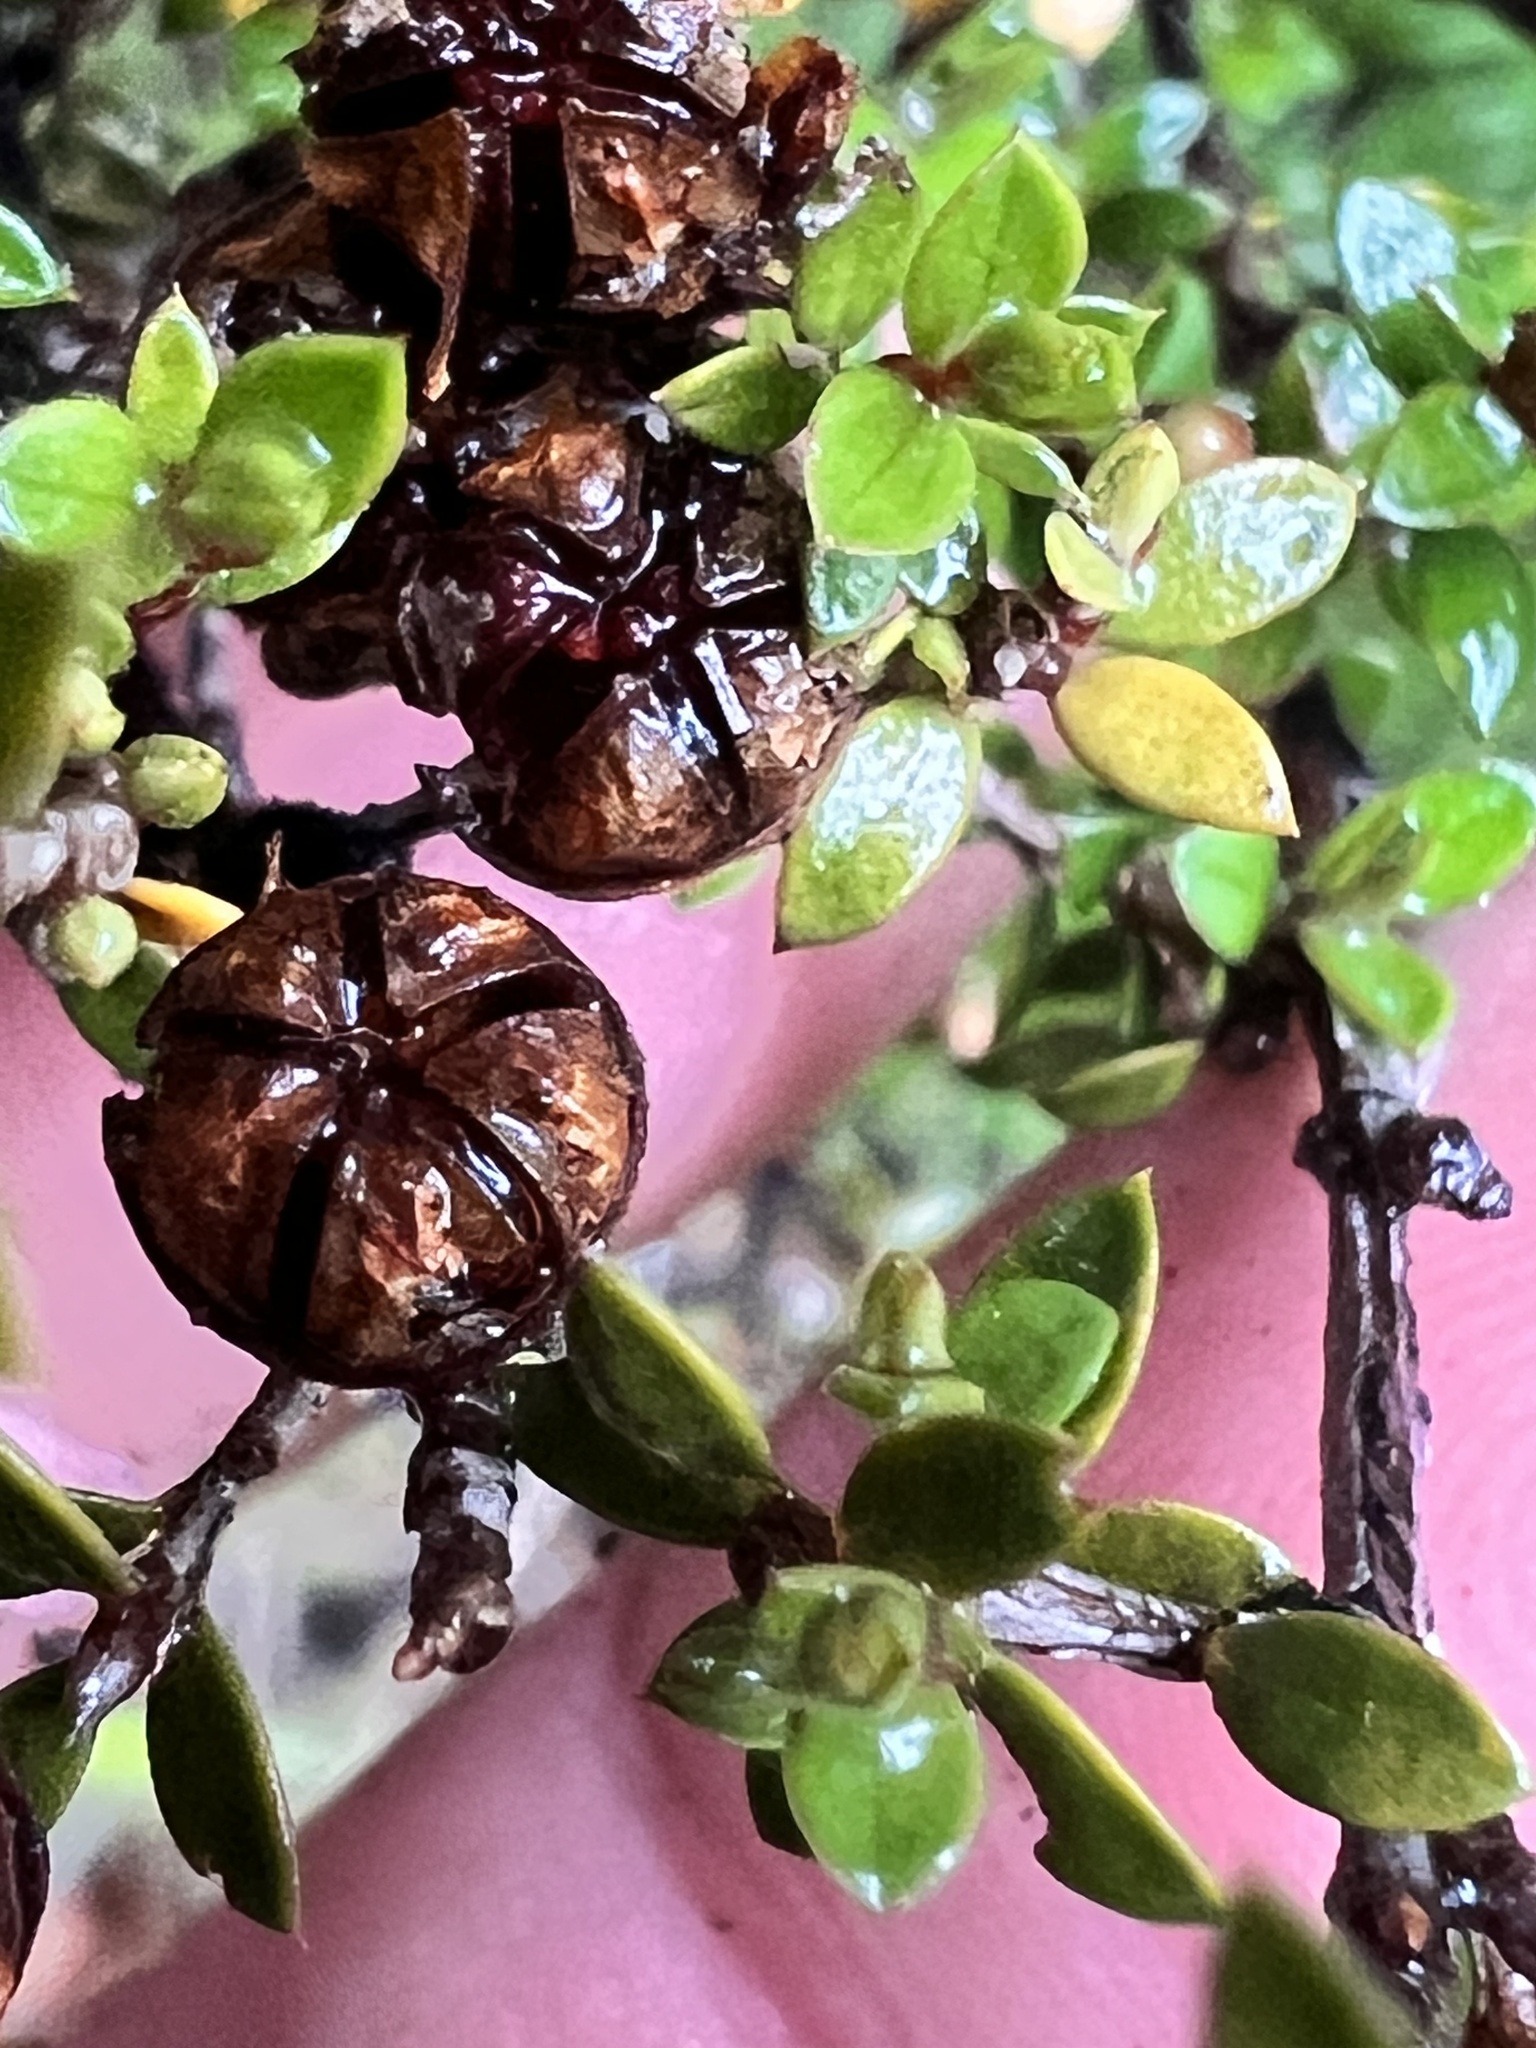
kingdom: Plantae
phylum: Tracheophyta
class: Magnoliopsida
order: Myrtales
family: Myrtaceae
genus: Leptospermum
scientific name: Leptospermum scoparium
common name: Broom tea-tree
